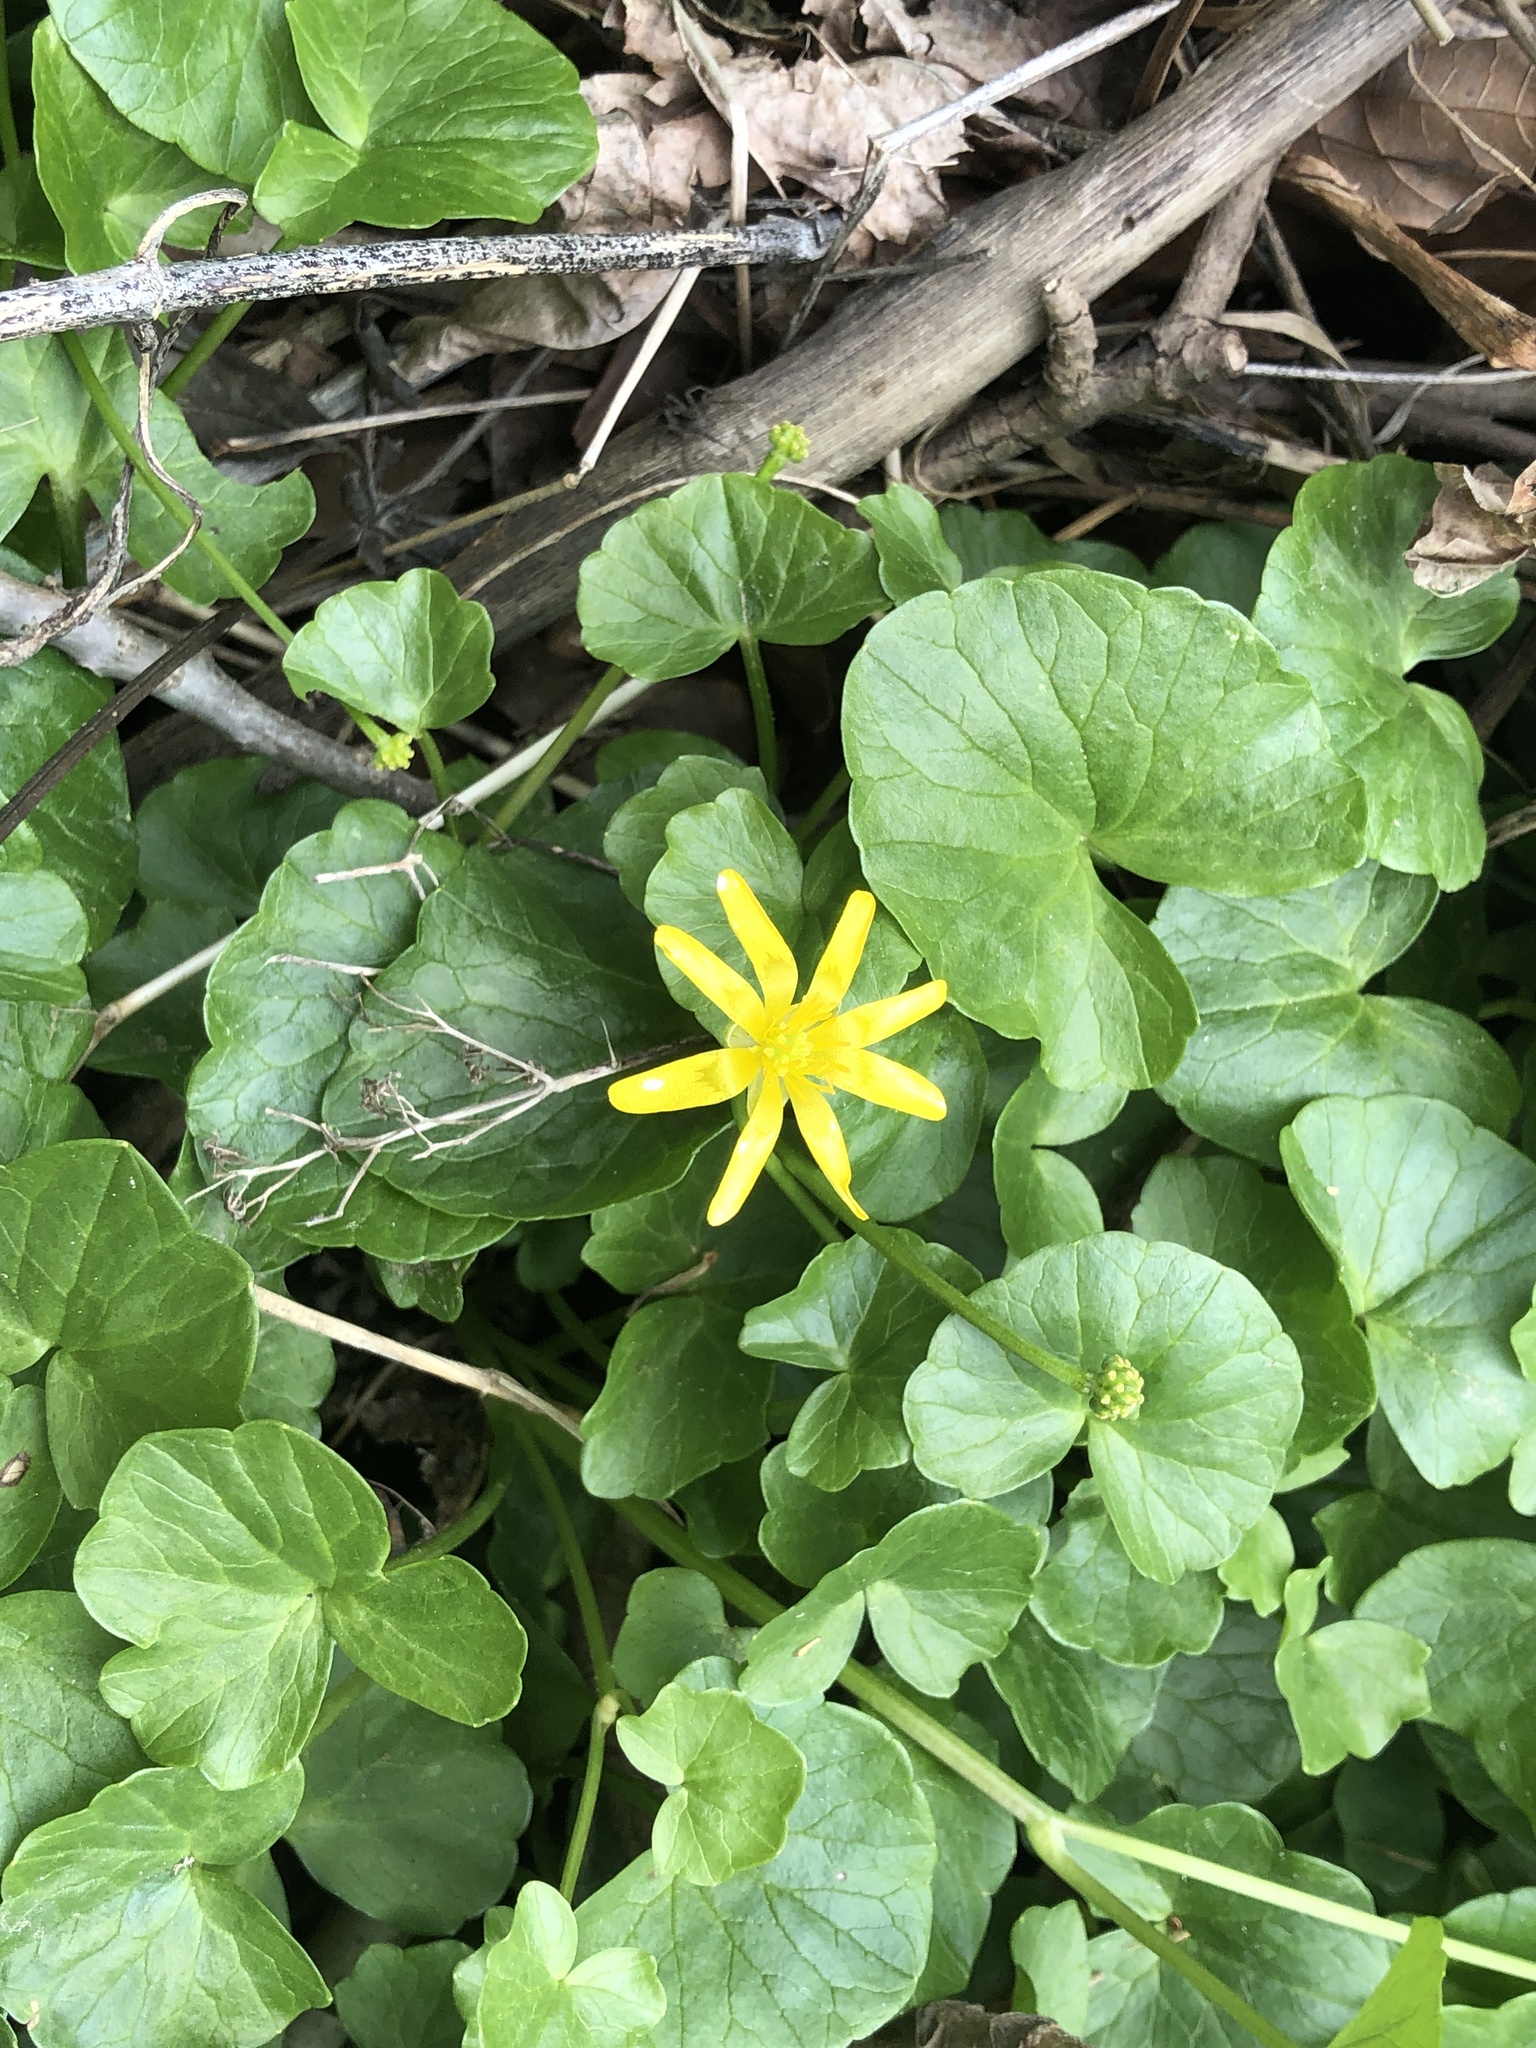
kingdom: Plantae
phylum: Tracheophyta
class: Magnoliopsida
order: Ranunculales
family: Ranunculaceae
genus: Ficaria
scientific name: Ficaria verna
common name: Lesser celandine
